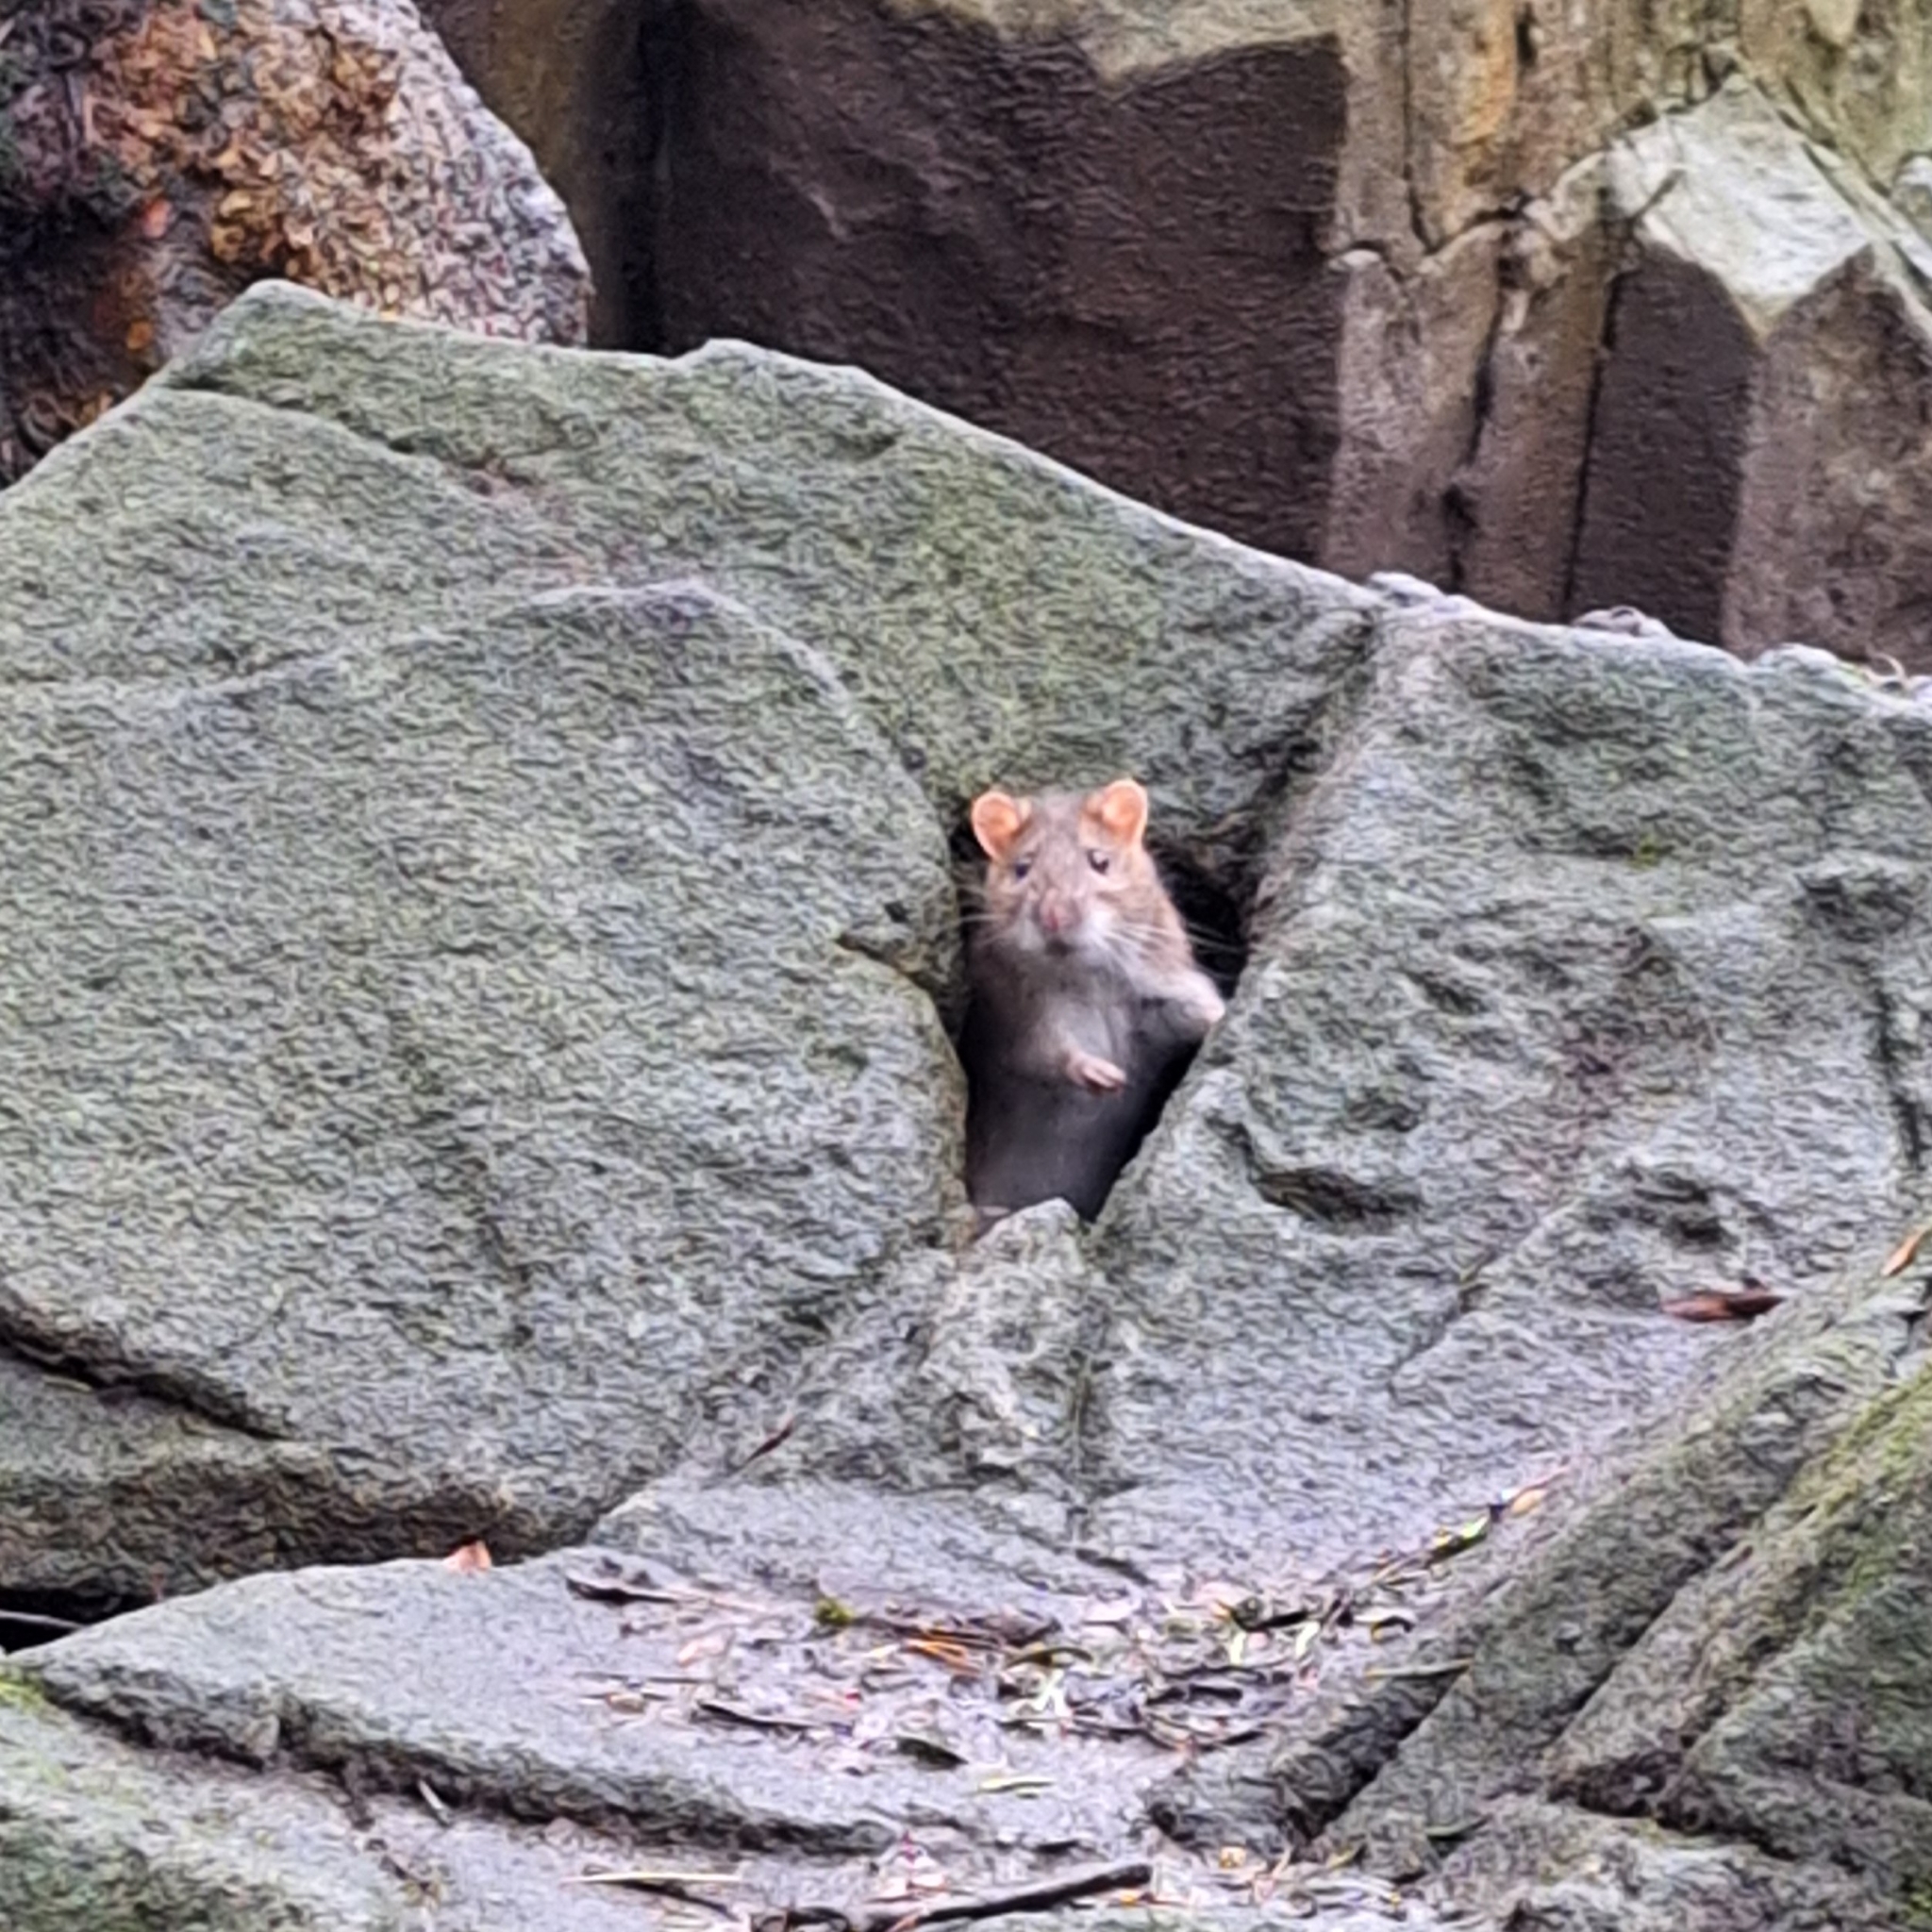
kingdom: Animalia
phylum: Chordata
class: Mammalia
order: Rodentia
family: Muridae
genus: Rattus
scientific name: Rattus norvegicus
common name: Brown rat
